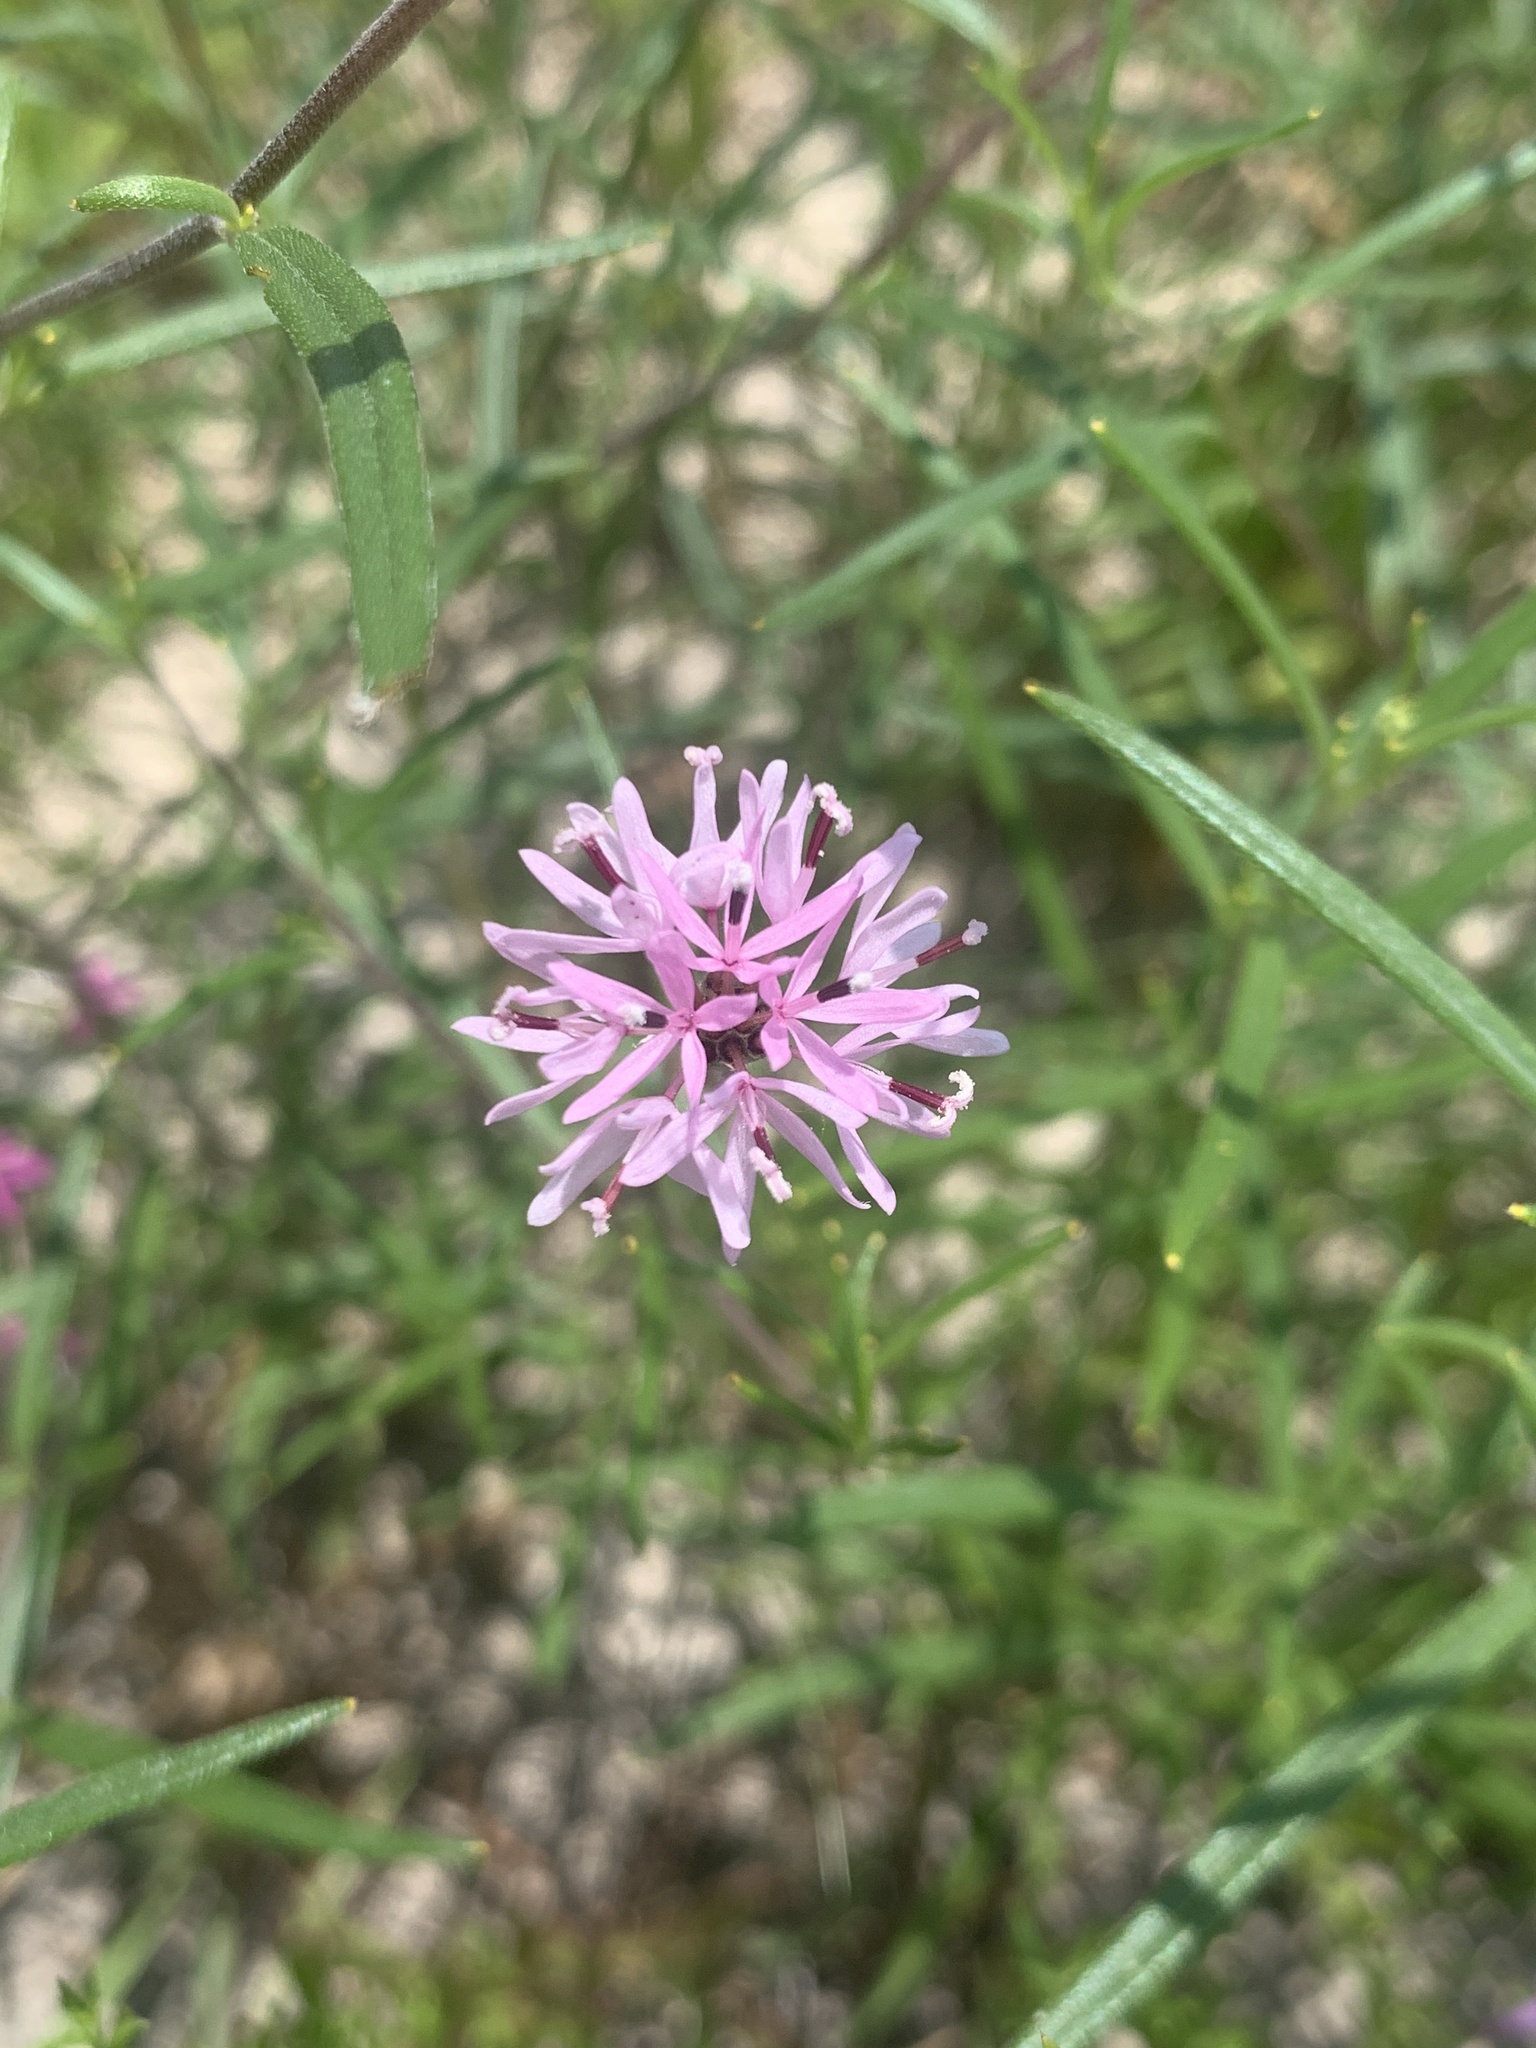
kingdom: Plantae
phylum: Tracheophyta
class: Magnoliopsida
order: Asterales
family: Asteraceae
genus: Palafoxia
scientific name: Palafoxia callosa
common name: Small palafox
